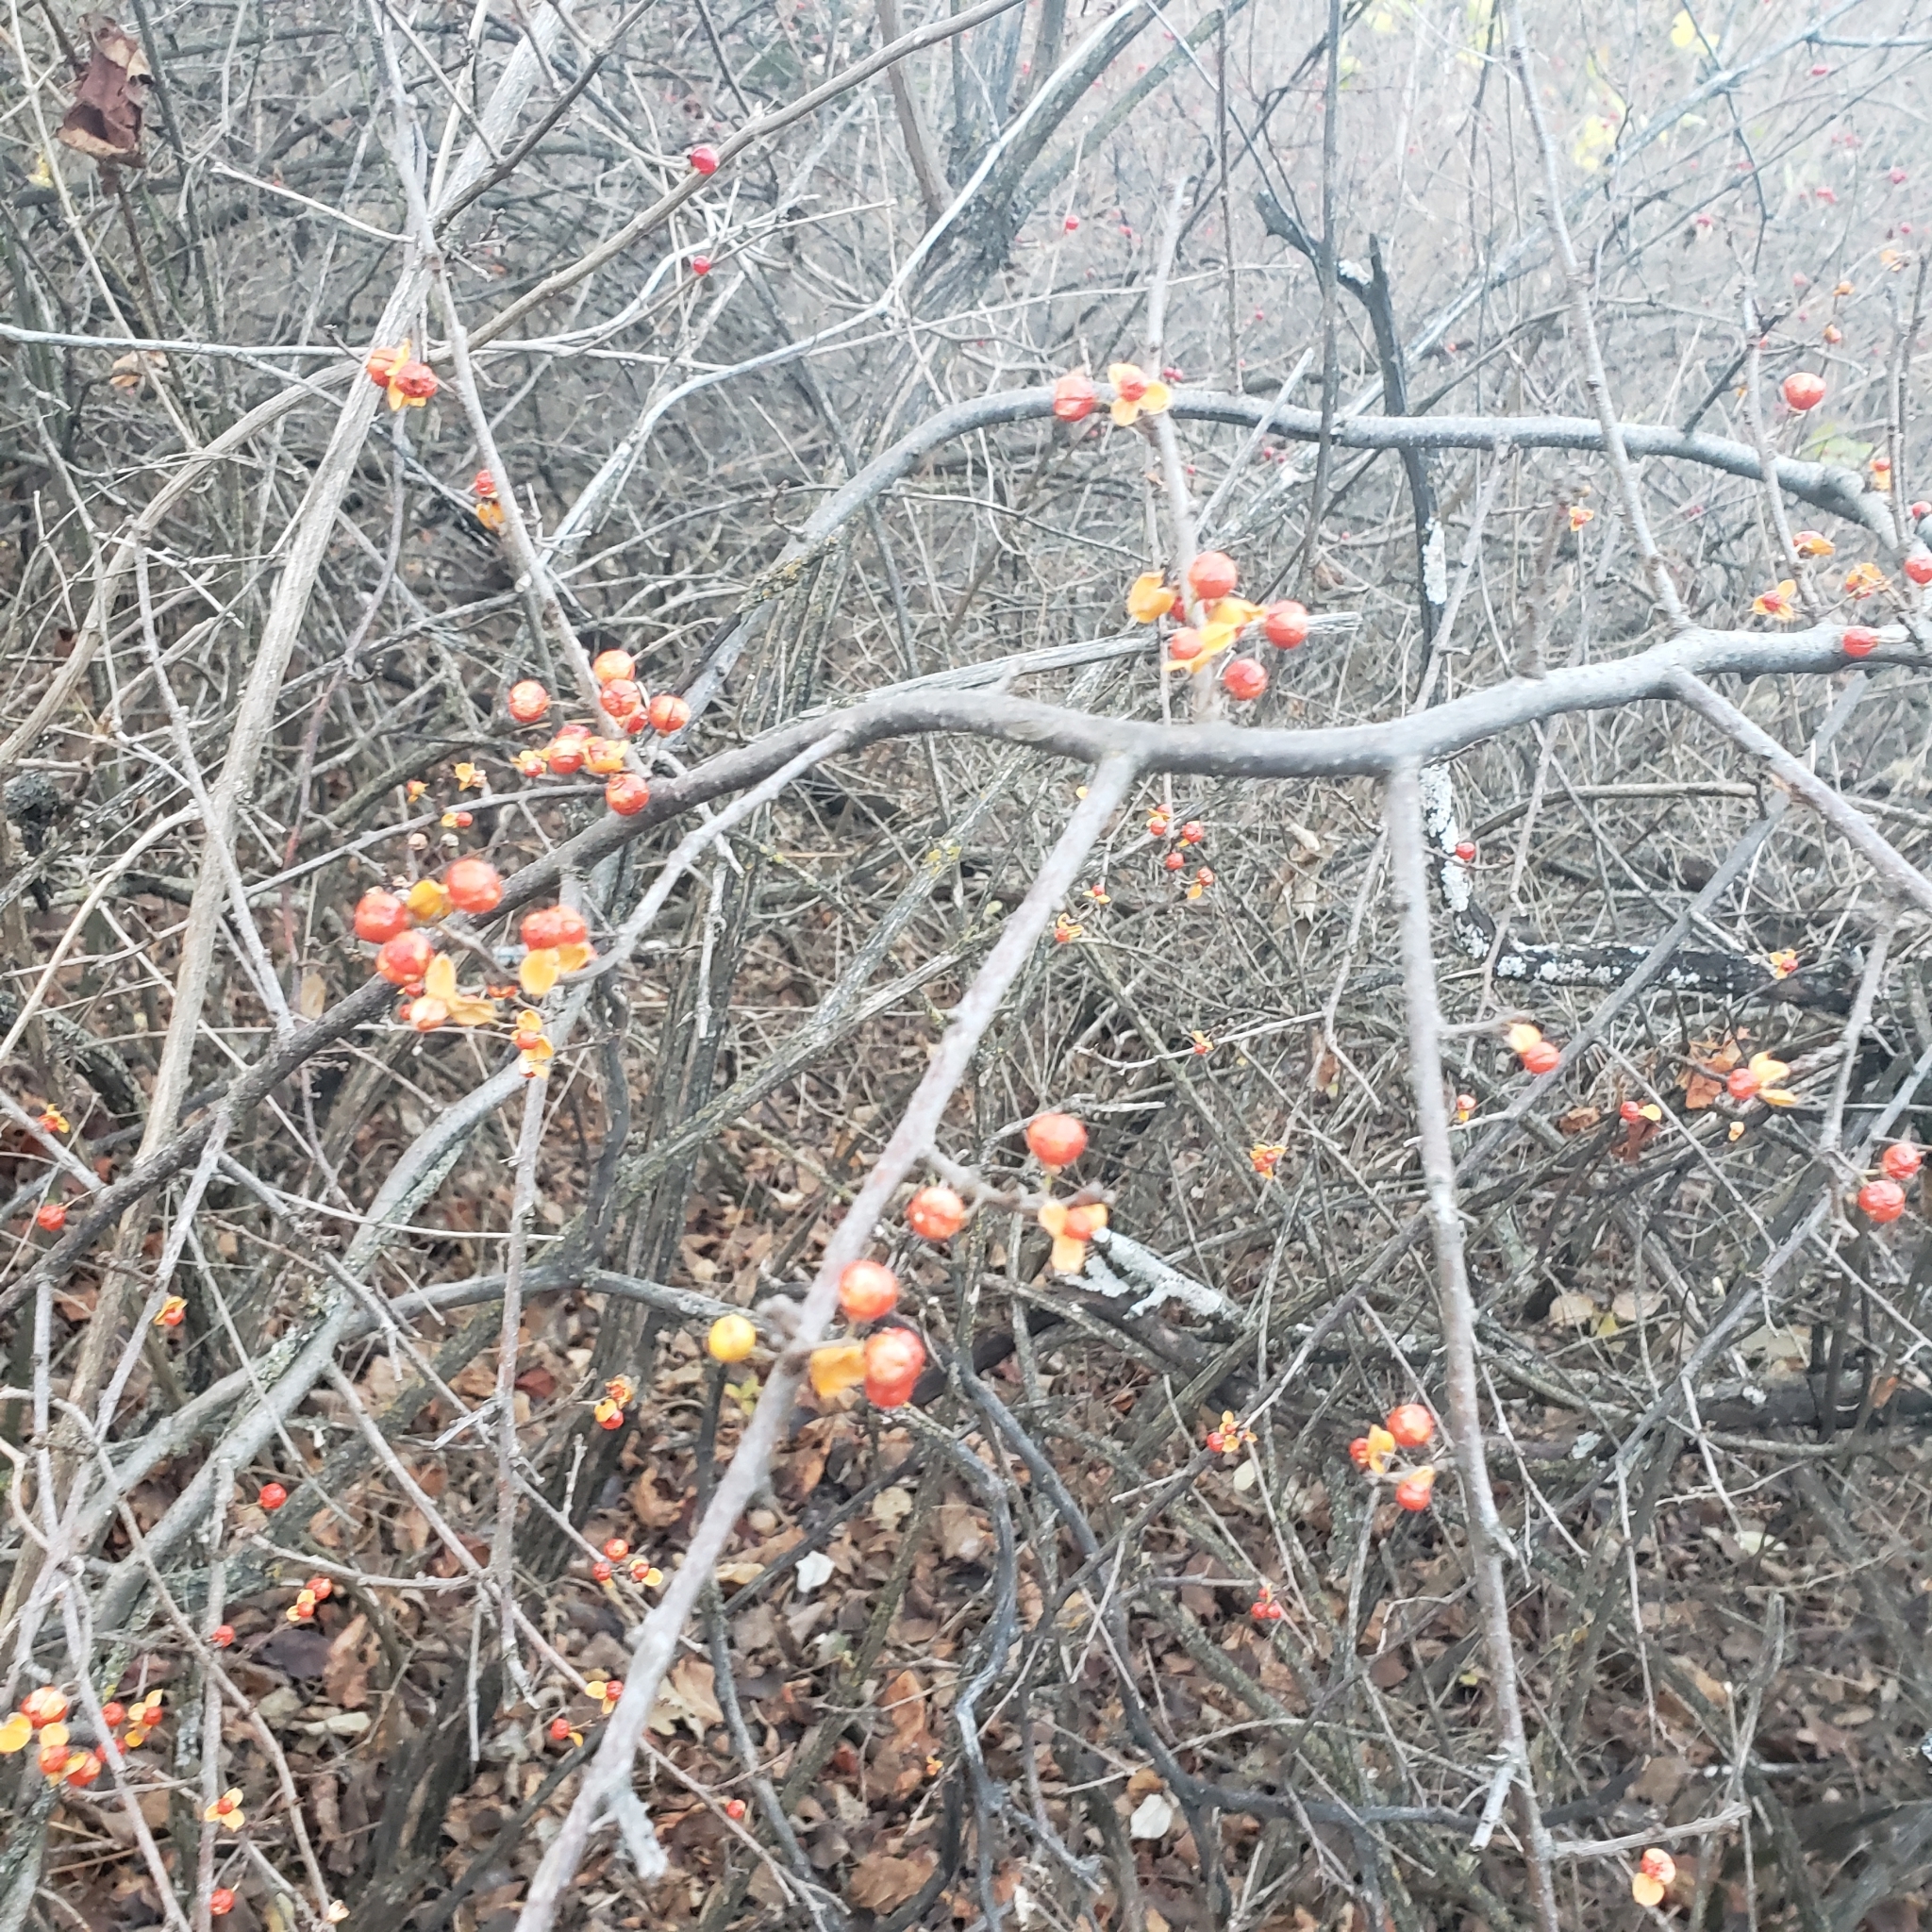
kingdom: Plantae
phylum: Tracheophyta
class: Magnoliopsida
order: Celastrales
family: Celastraceae
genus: Celastrus
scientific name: Celastrus orbiculatus
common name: Oriental bittersweet
